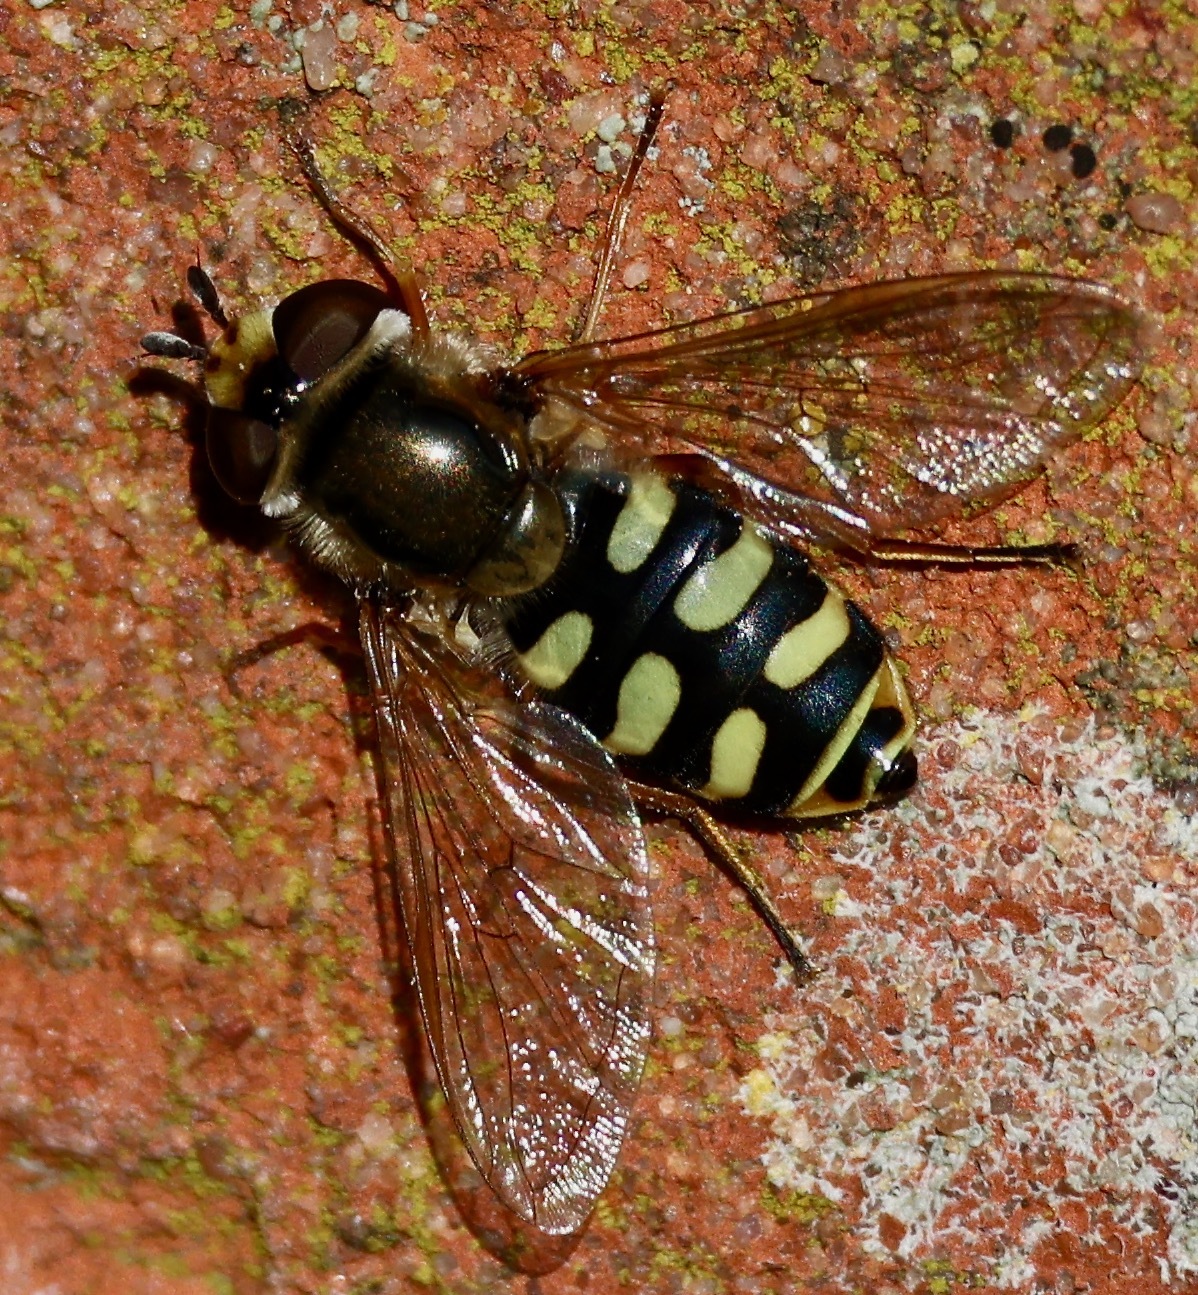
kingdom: Animalia
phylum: Arthropoda
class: Insecta
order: Diptera
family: Syrphidae
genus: Eupeodes
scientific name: Eupeodes corollae
